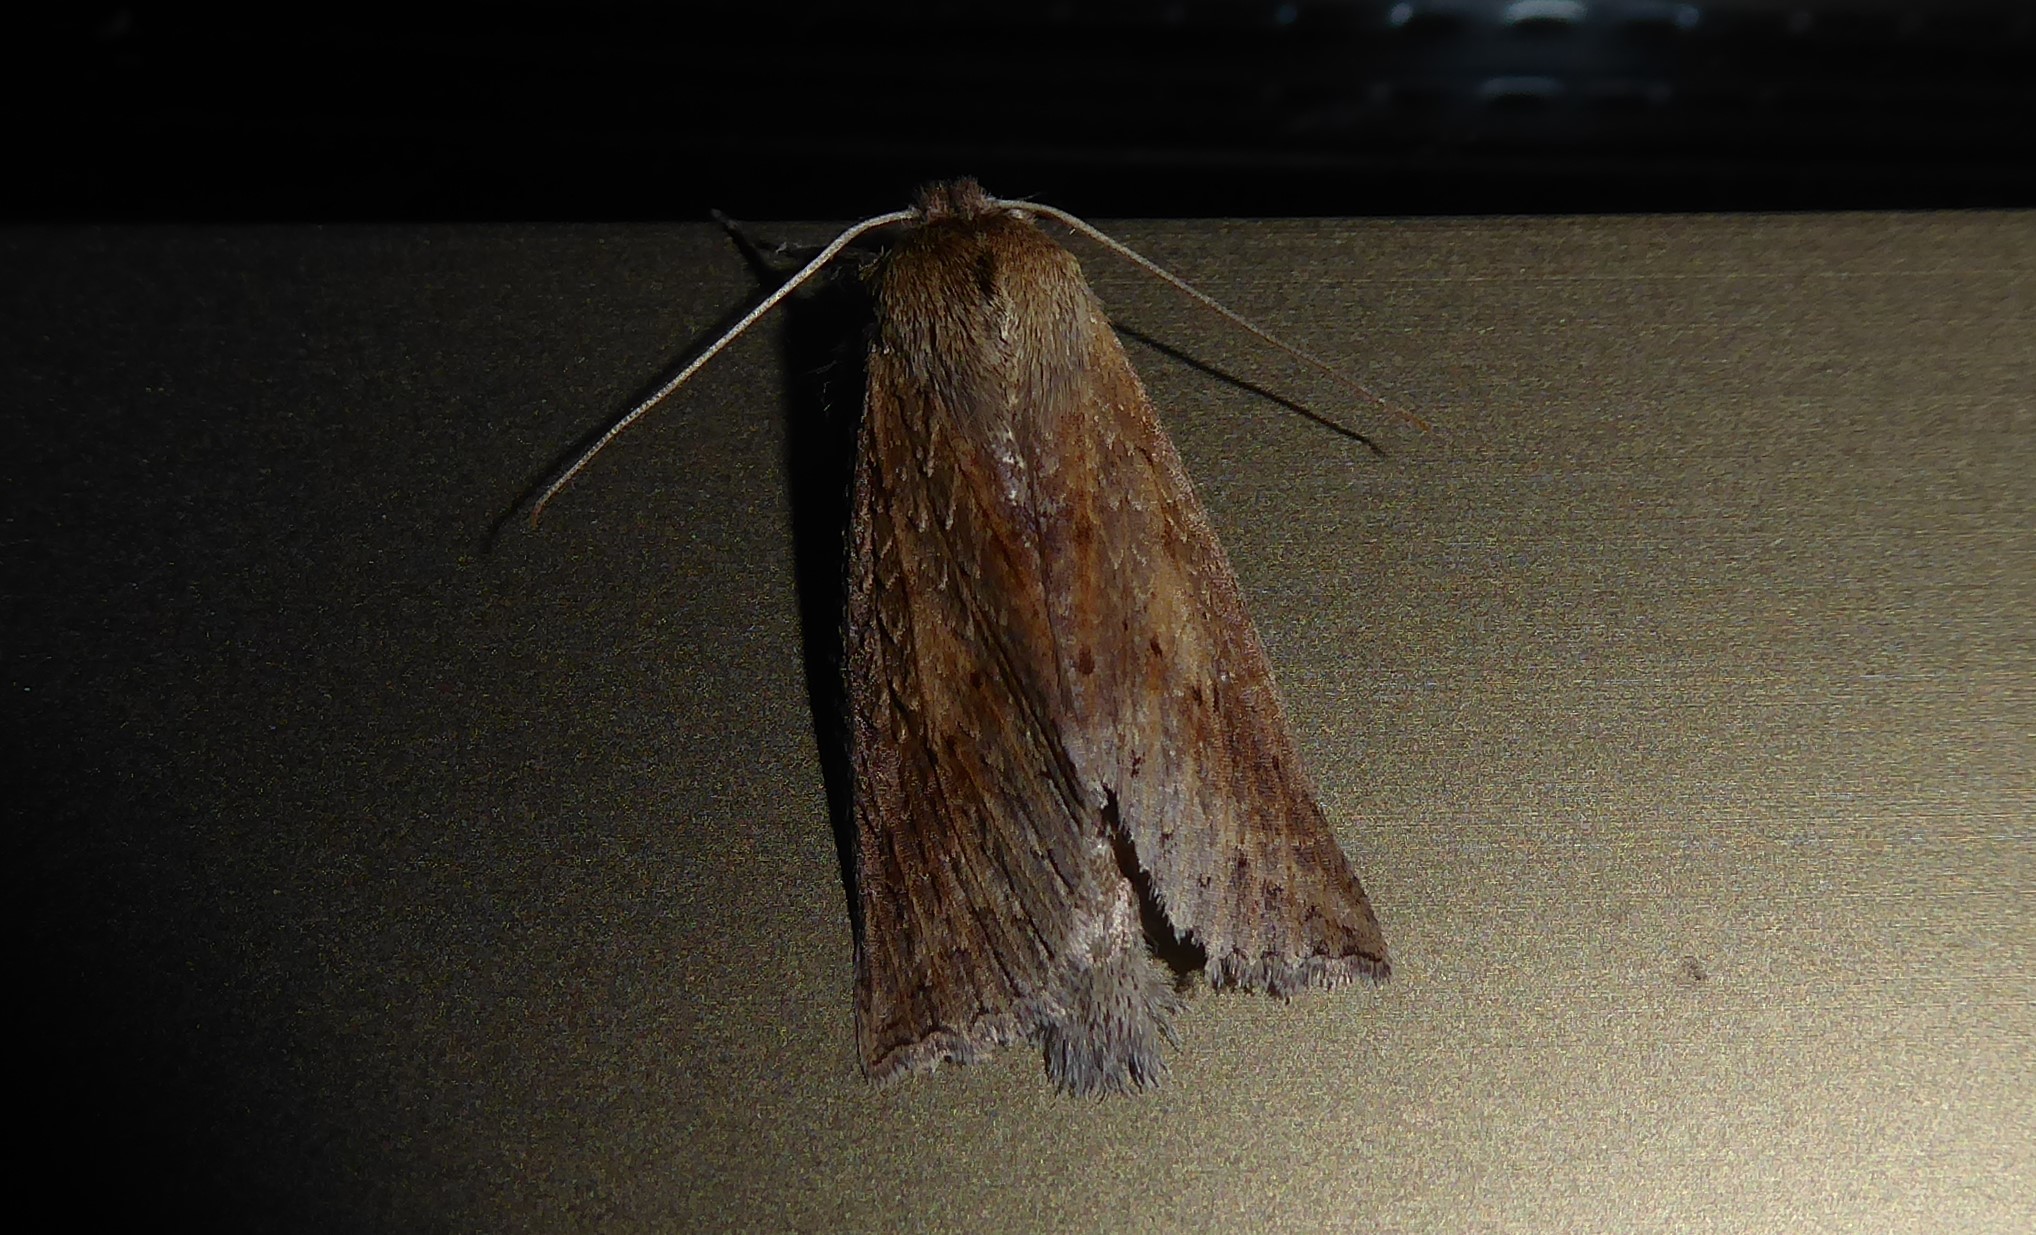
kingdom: Animalia
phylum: Arthropoda
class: Insecta
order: Lepidoptera
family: Geometridae
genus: Declana
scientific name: Declana leptomera
